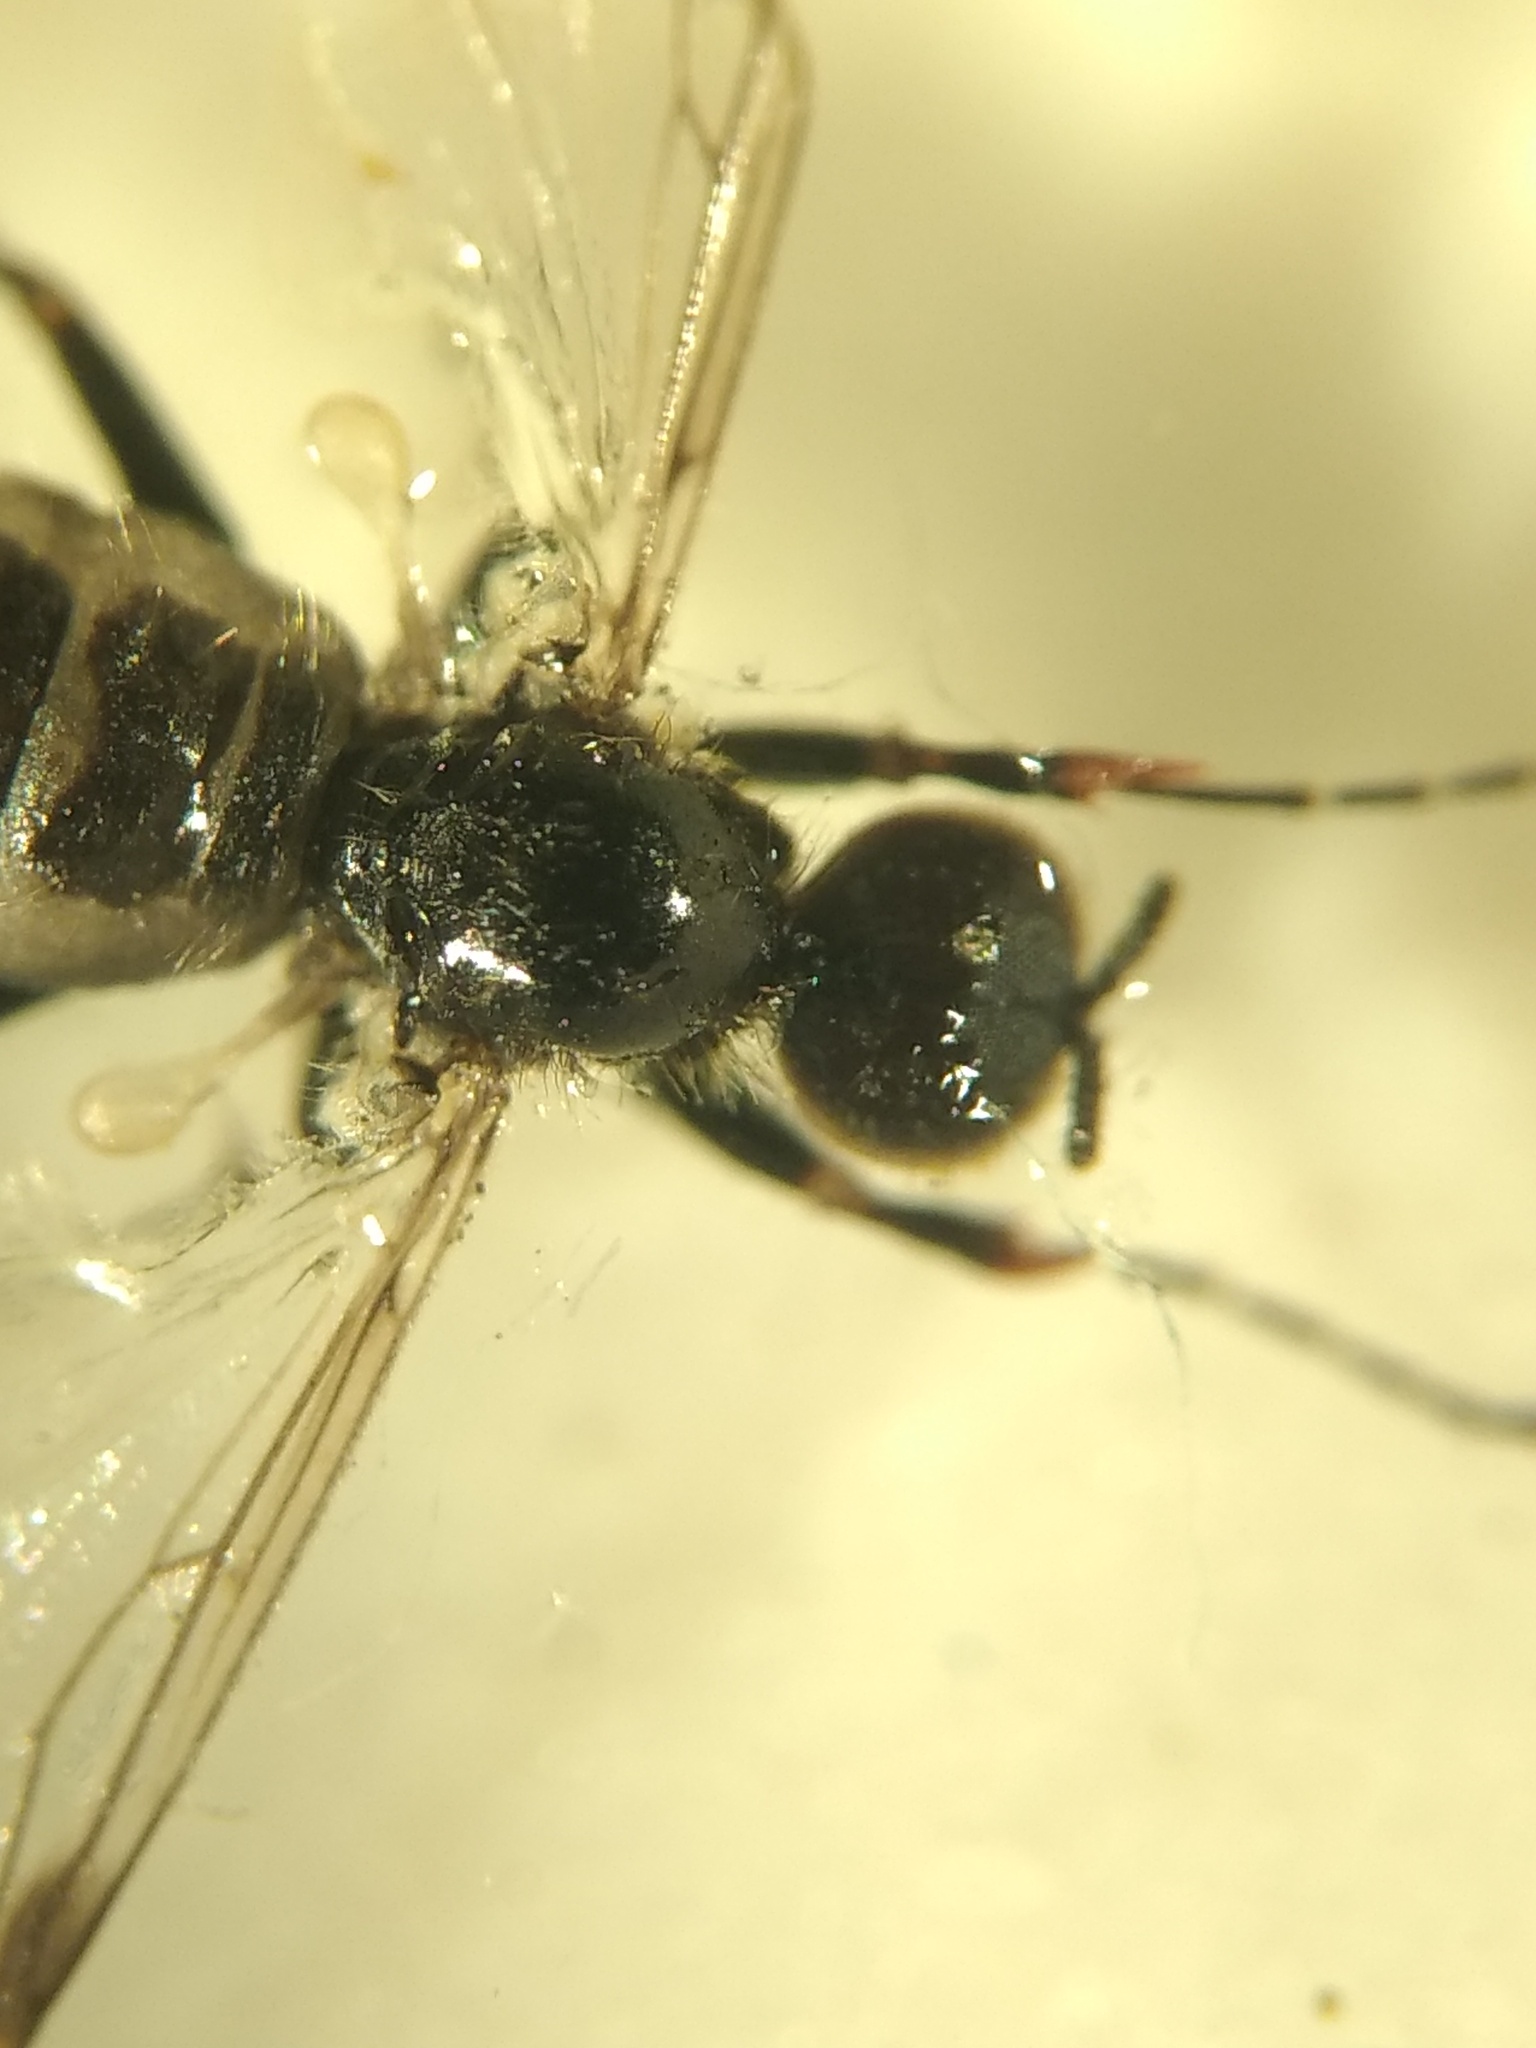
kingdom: Animalia
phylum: Arthropoda
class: Insecta
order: Diptera
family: Bibionidae
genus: Bibiodes
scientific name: Bibiodes halteralis
